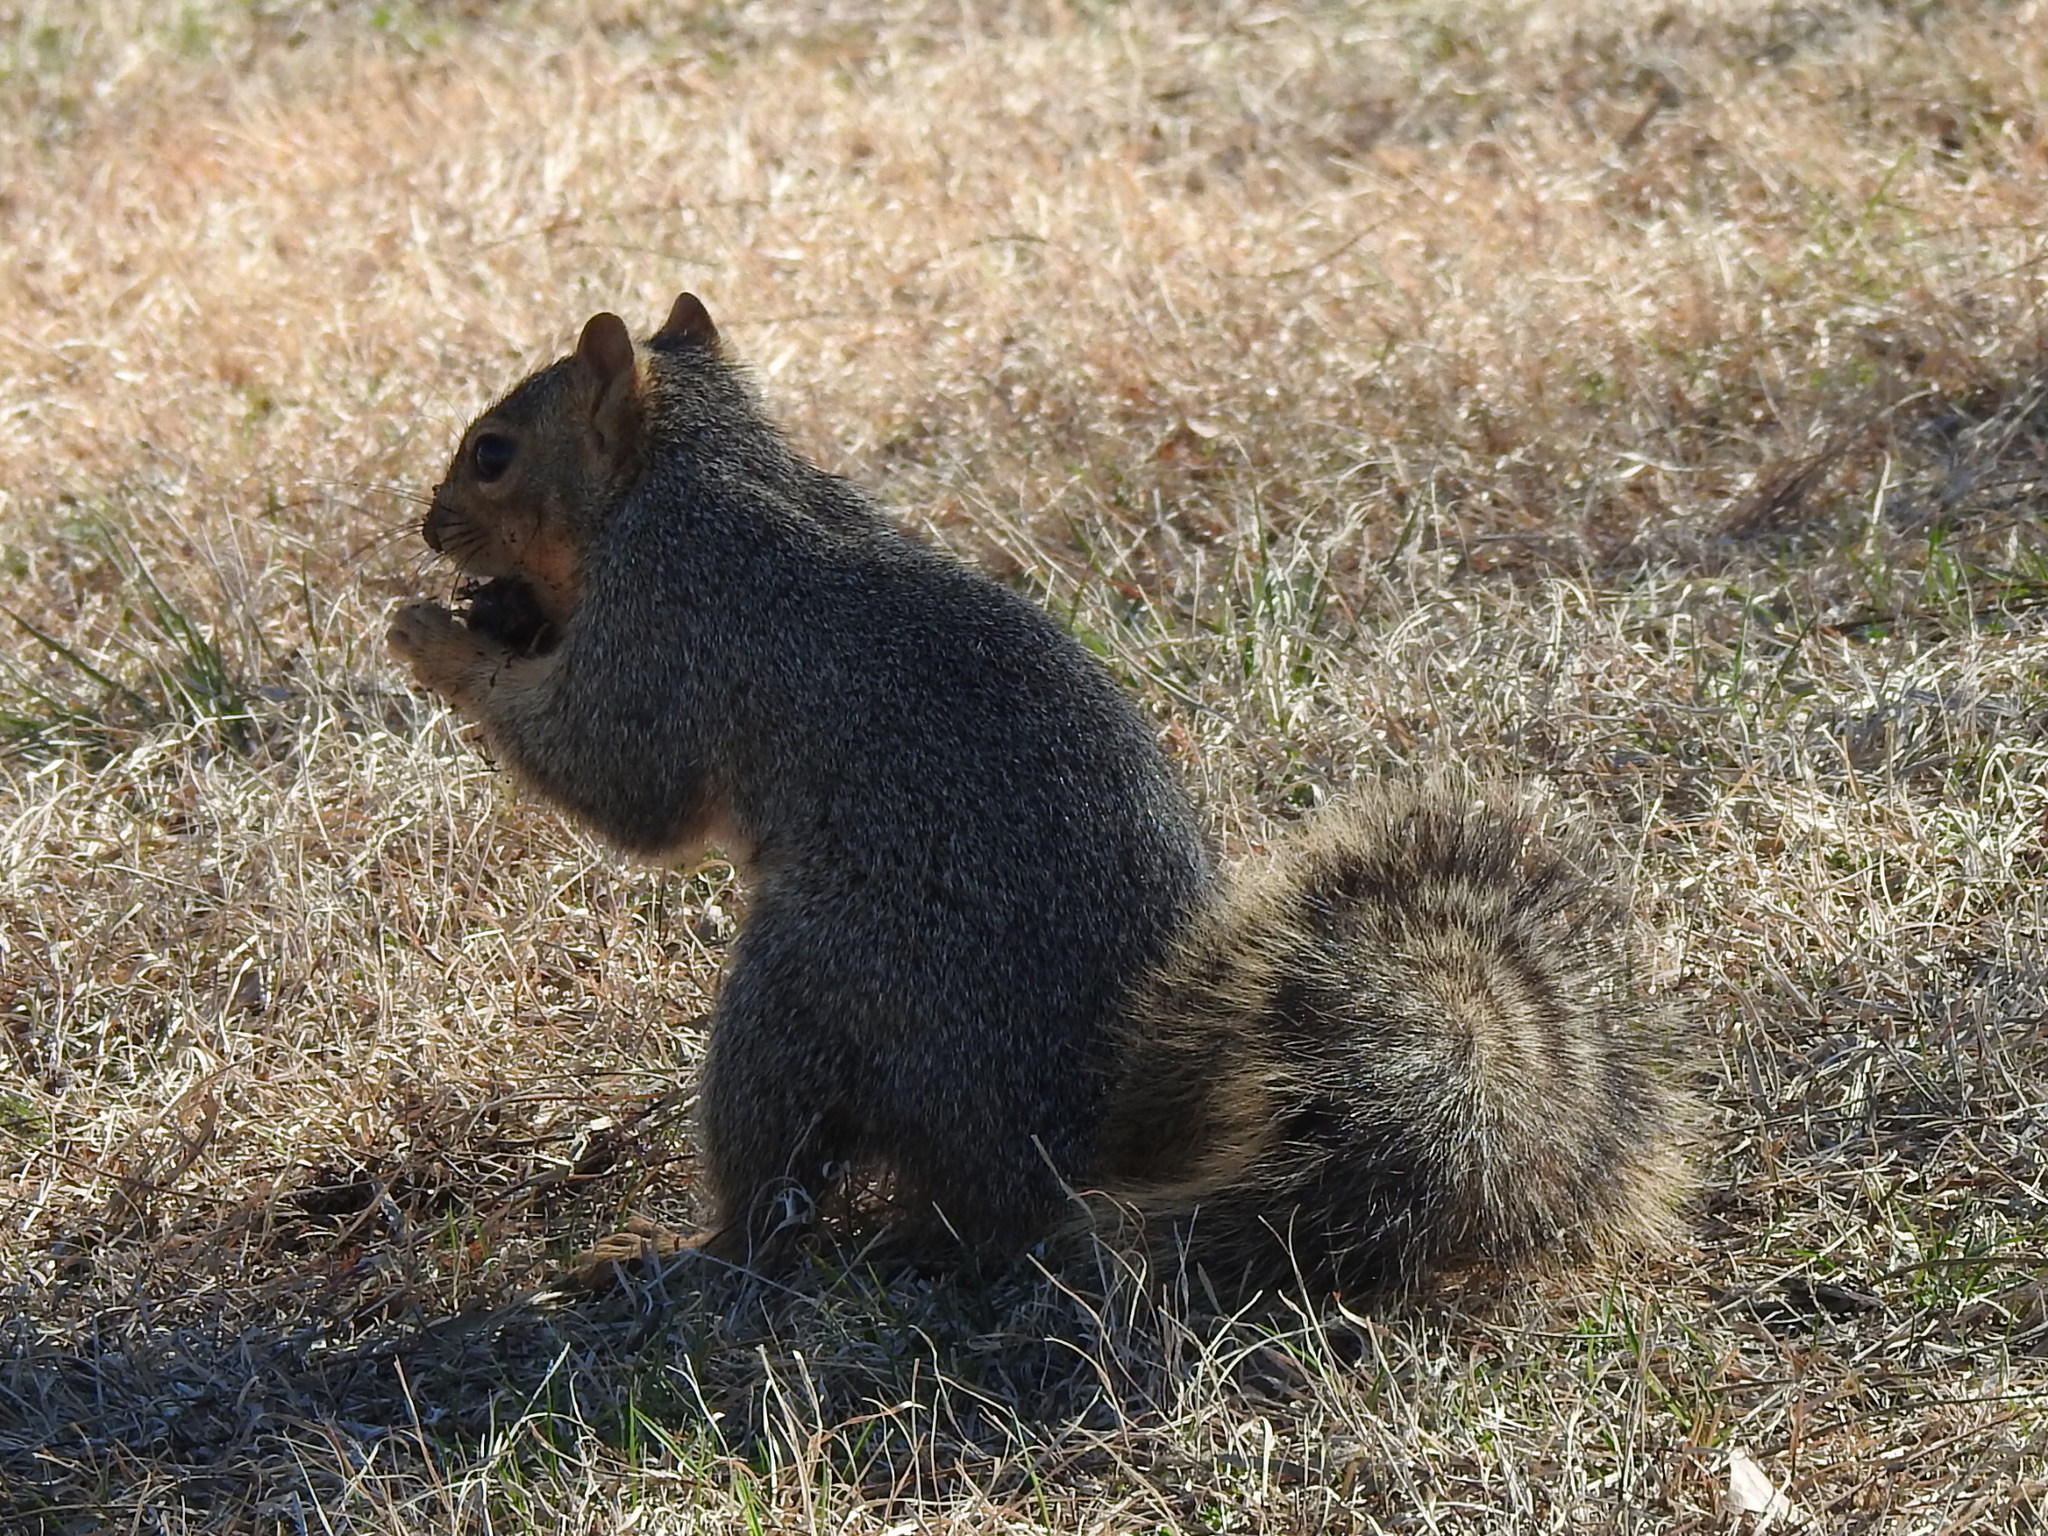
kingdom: Animalia
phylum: Chordata
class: Mammalia
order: Rodentia
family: Sciuridae
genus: Sciurus
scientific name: Sciurus niger
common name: Fox squirrel
